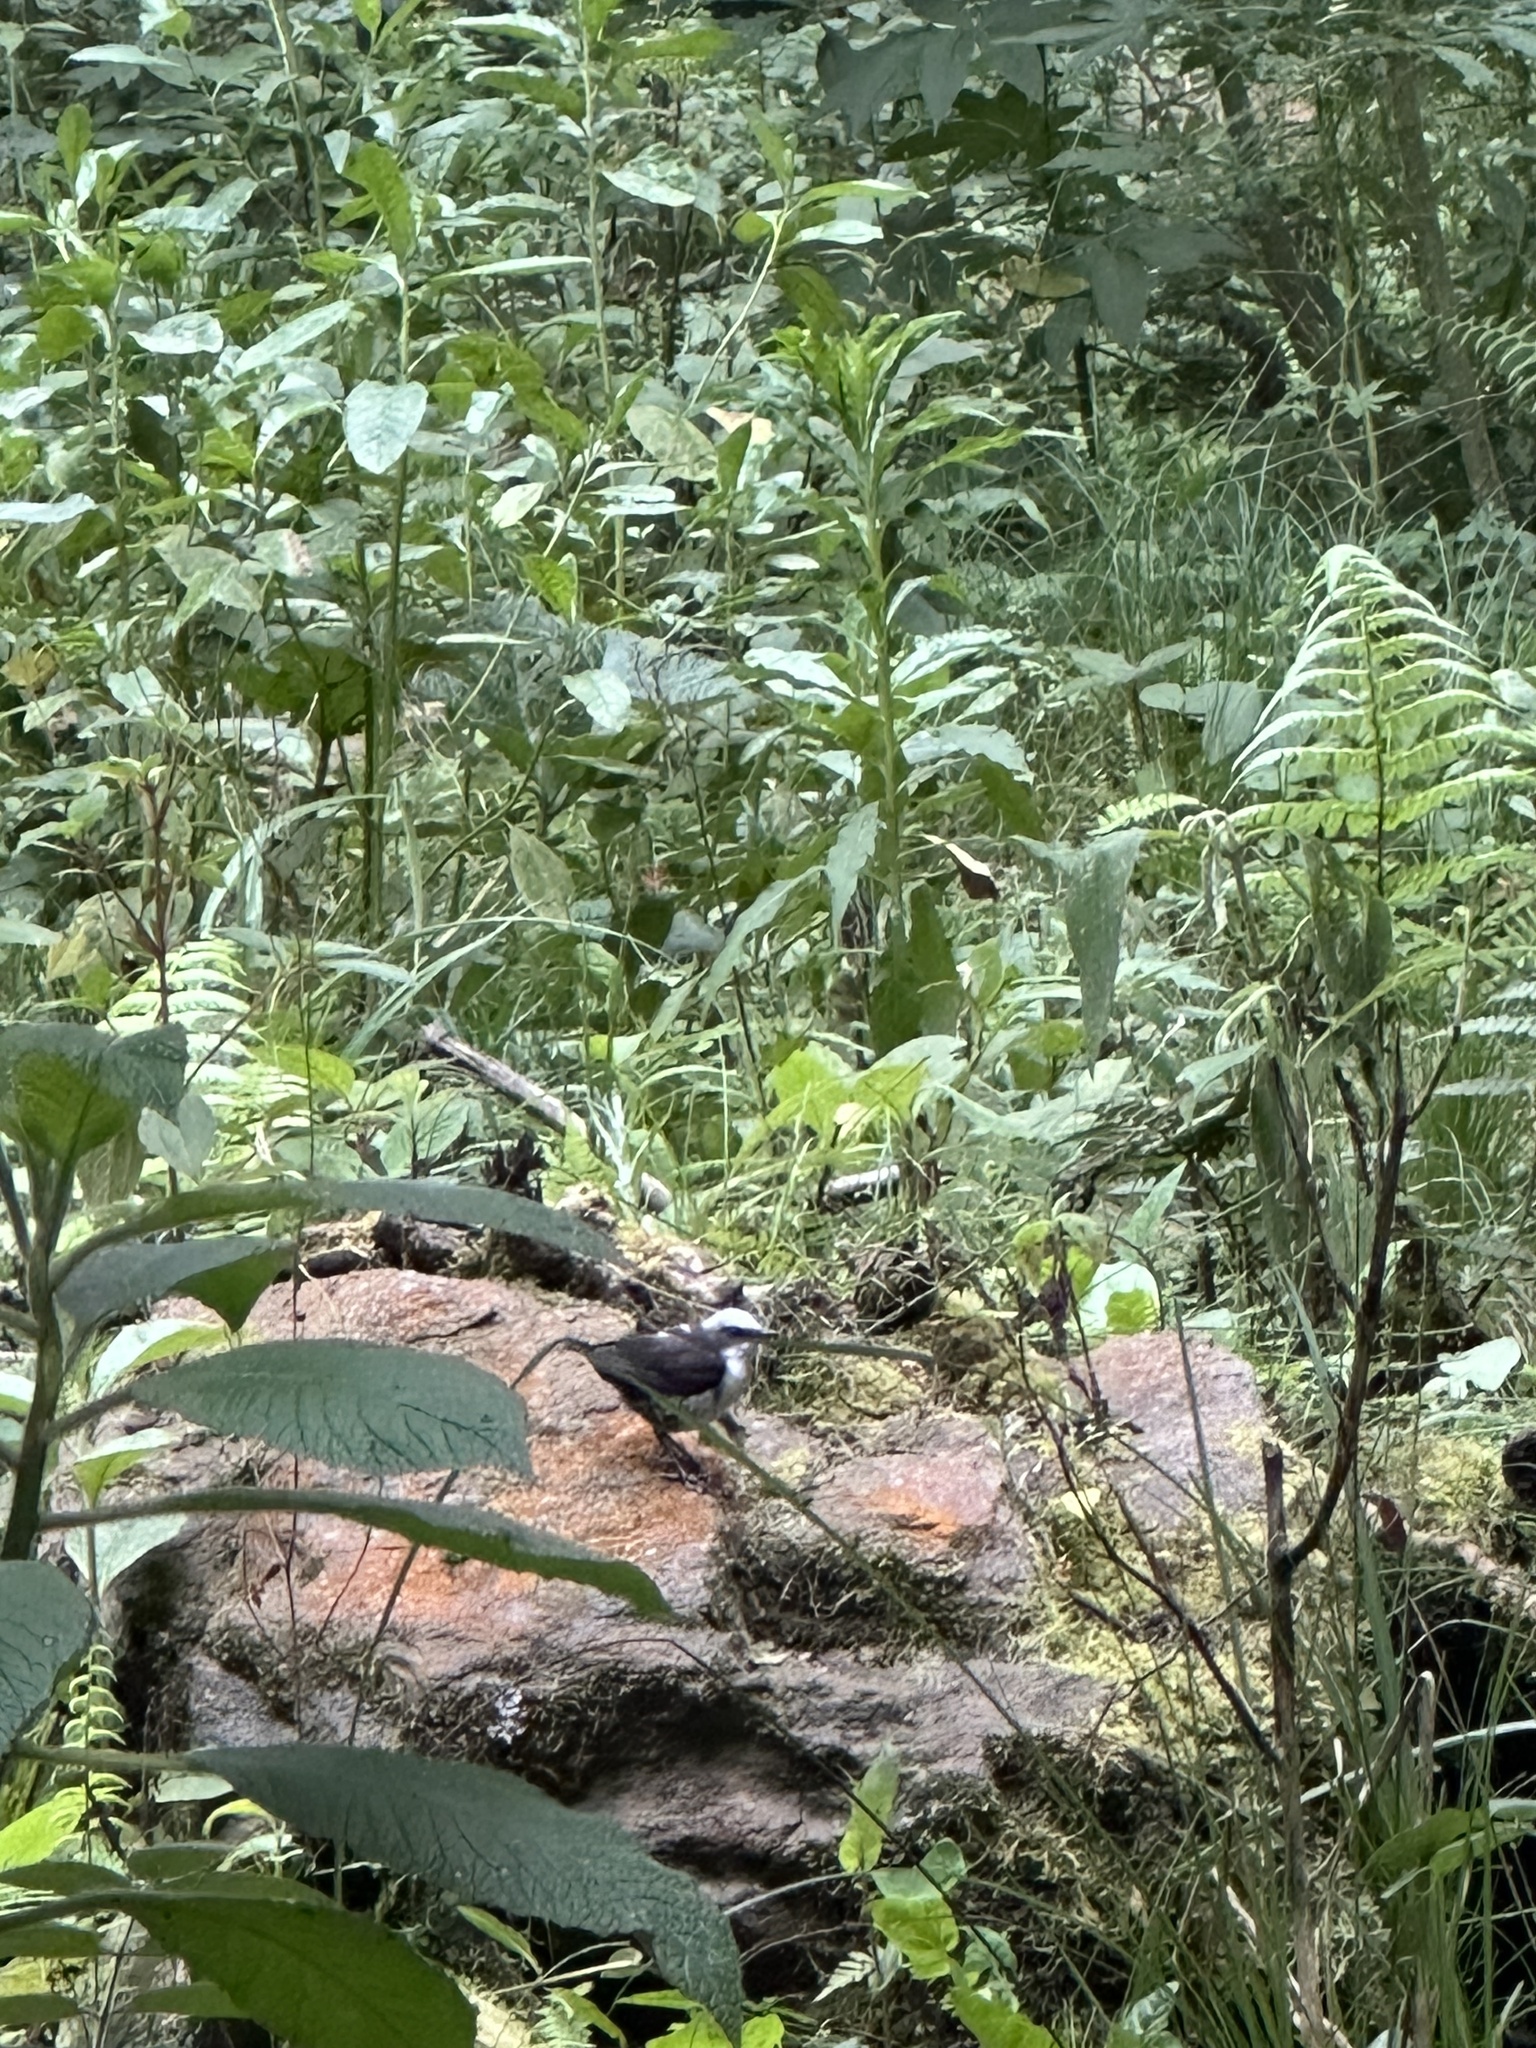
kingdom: Animalia
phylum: Chordata
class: Aves
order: Passeriformes
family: Cinclidae
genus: Cinclus
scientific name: Cinclus leucocephalus
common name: White-capped dipper
